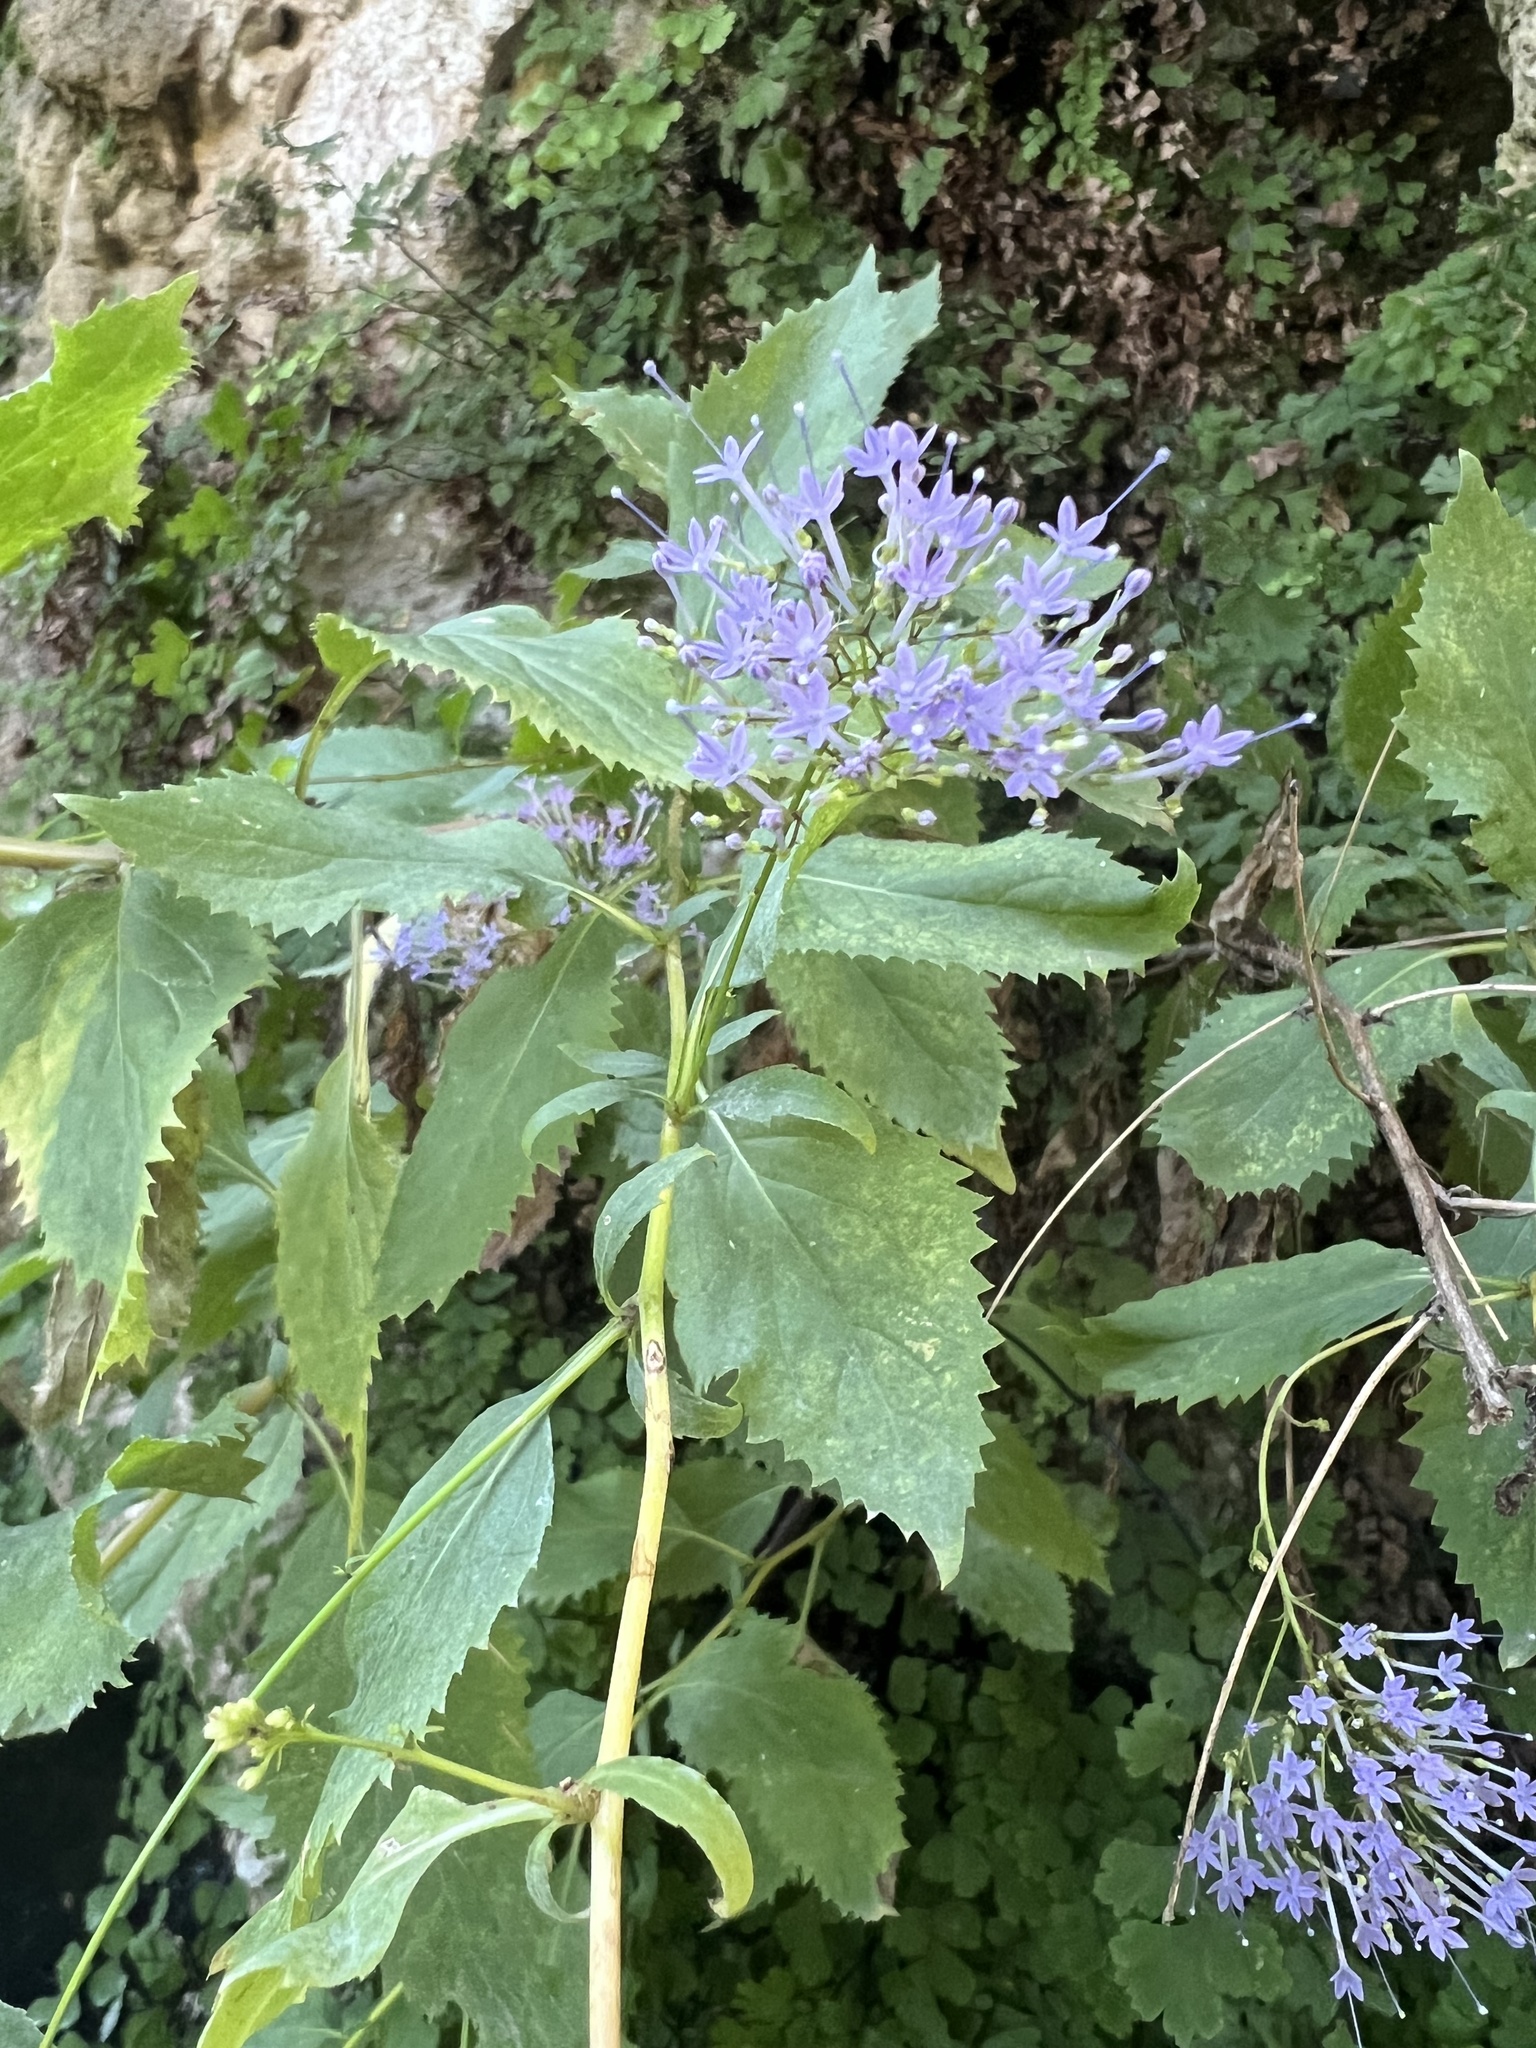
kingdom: Plantae
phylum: Tracheophyta
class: Magnoliopsida
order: Asterales
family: Campanulaceae
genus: Trachelium
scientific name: Trachelium caeruleum
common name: Throatwort
